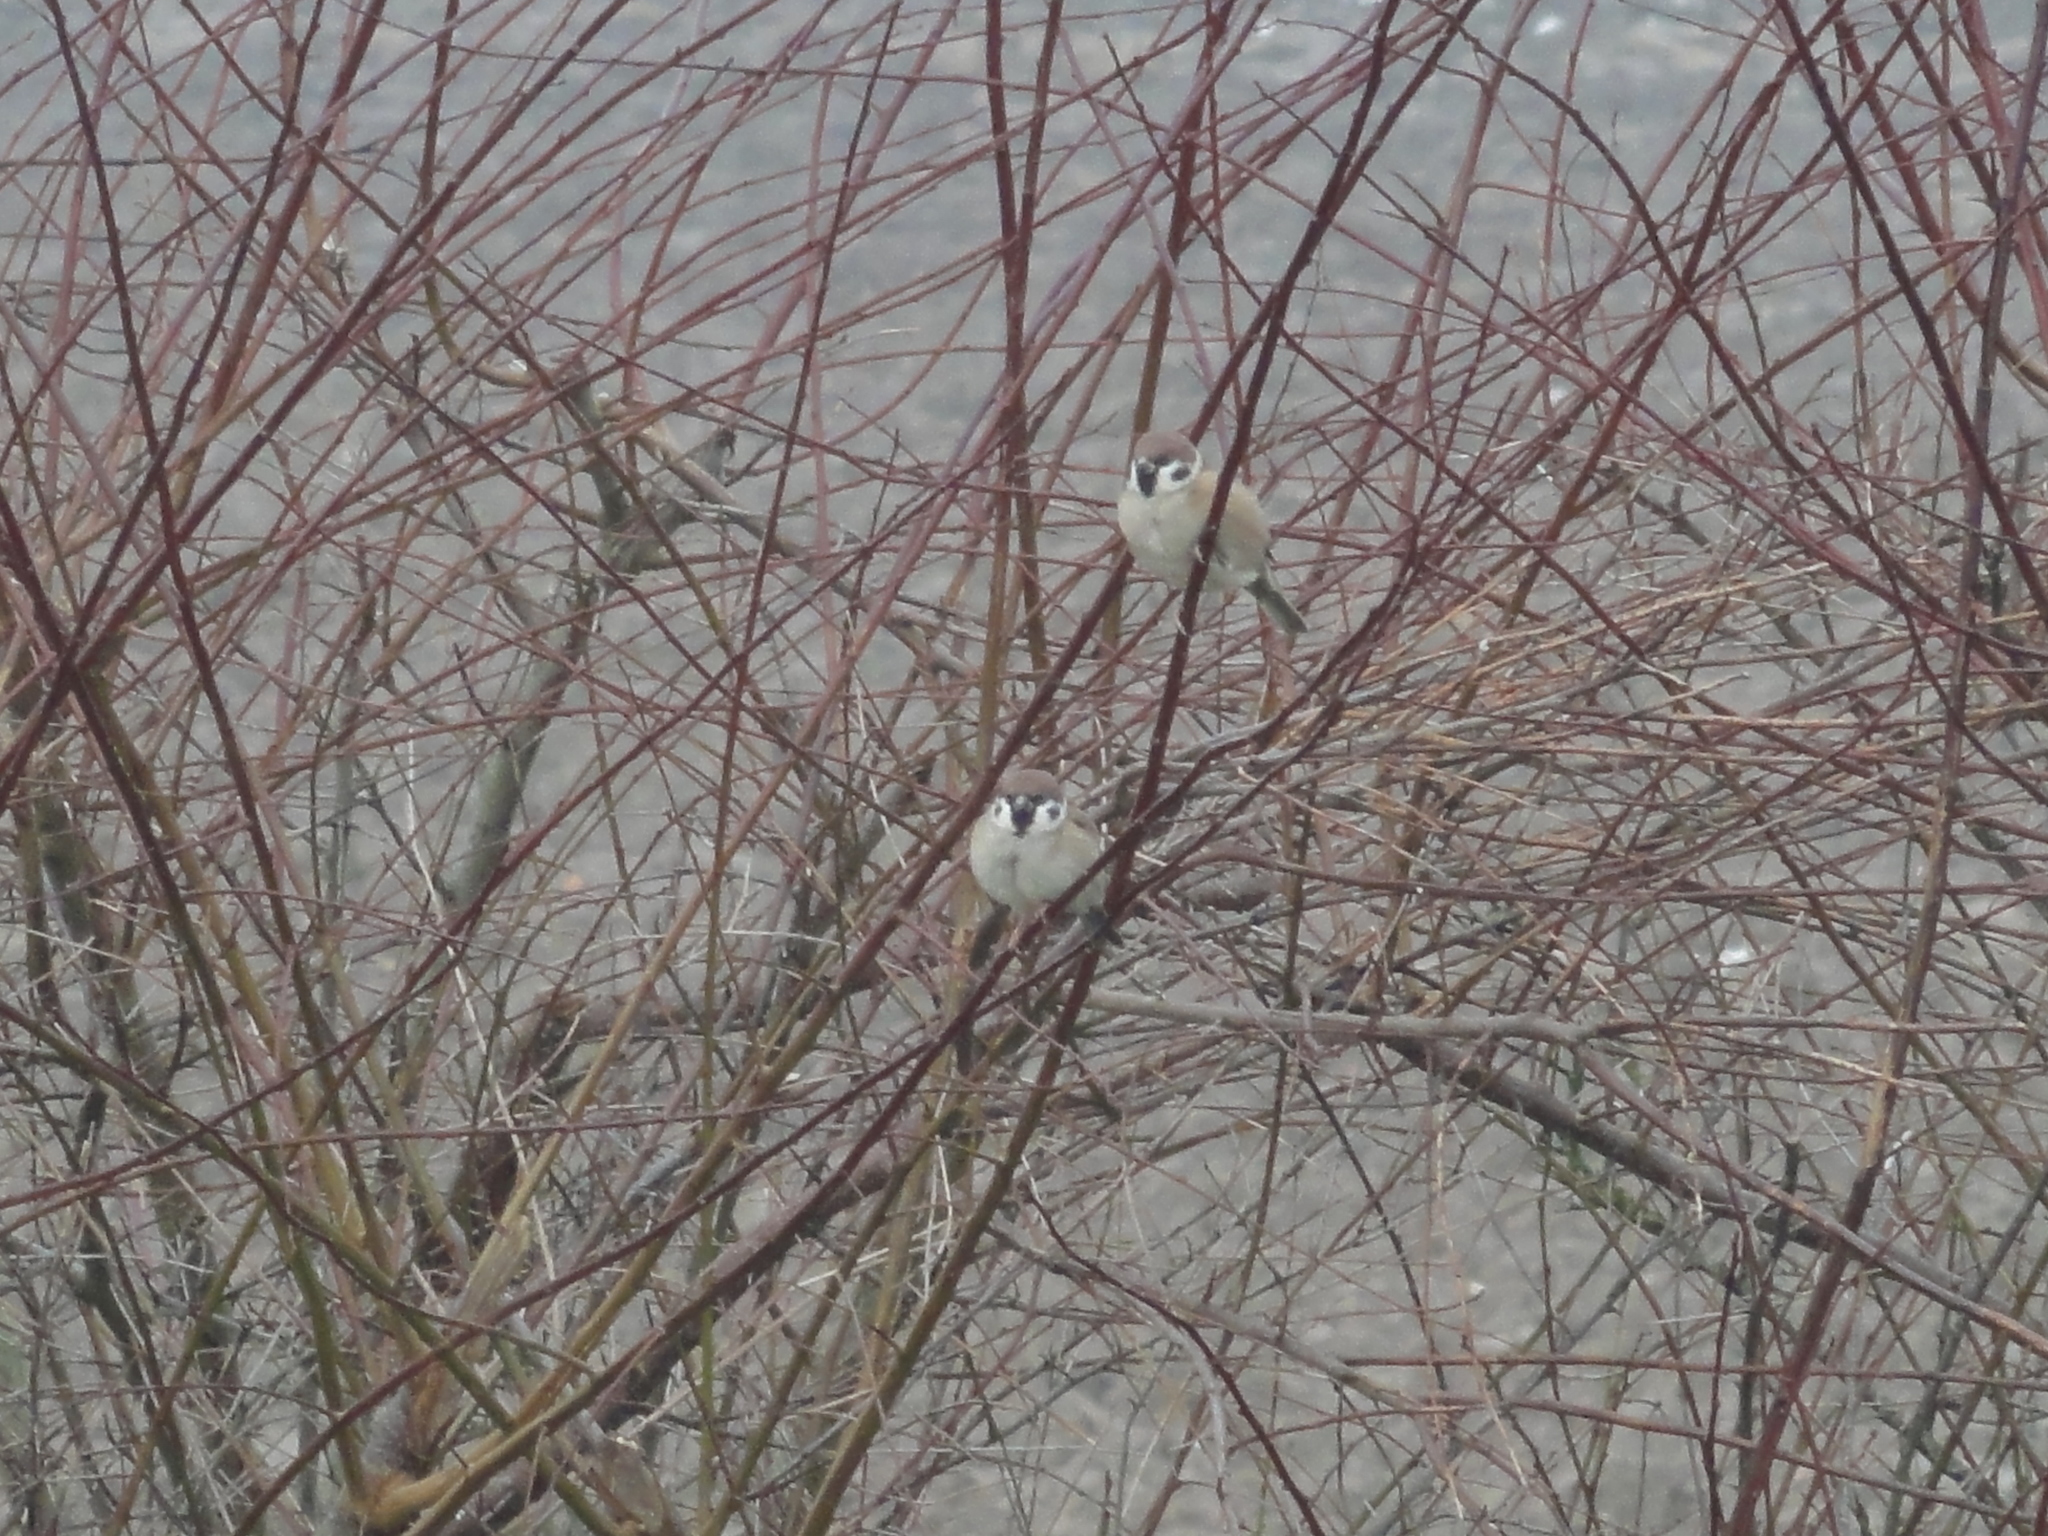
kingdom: Animalia
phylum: Chordata
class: Aves
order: Passeriformes
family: Passeridae
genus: Passer
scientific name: Passer montanus
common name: Eurasian tree sparrow
